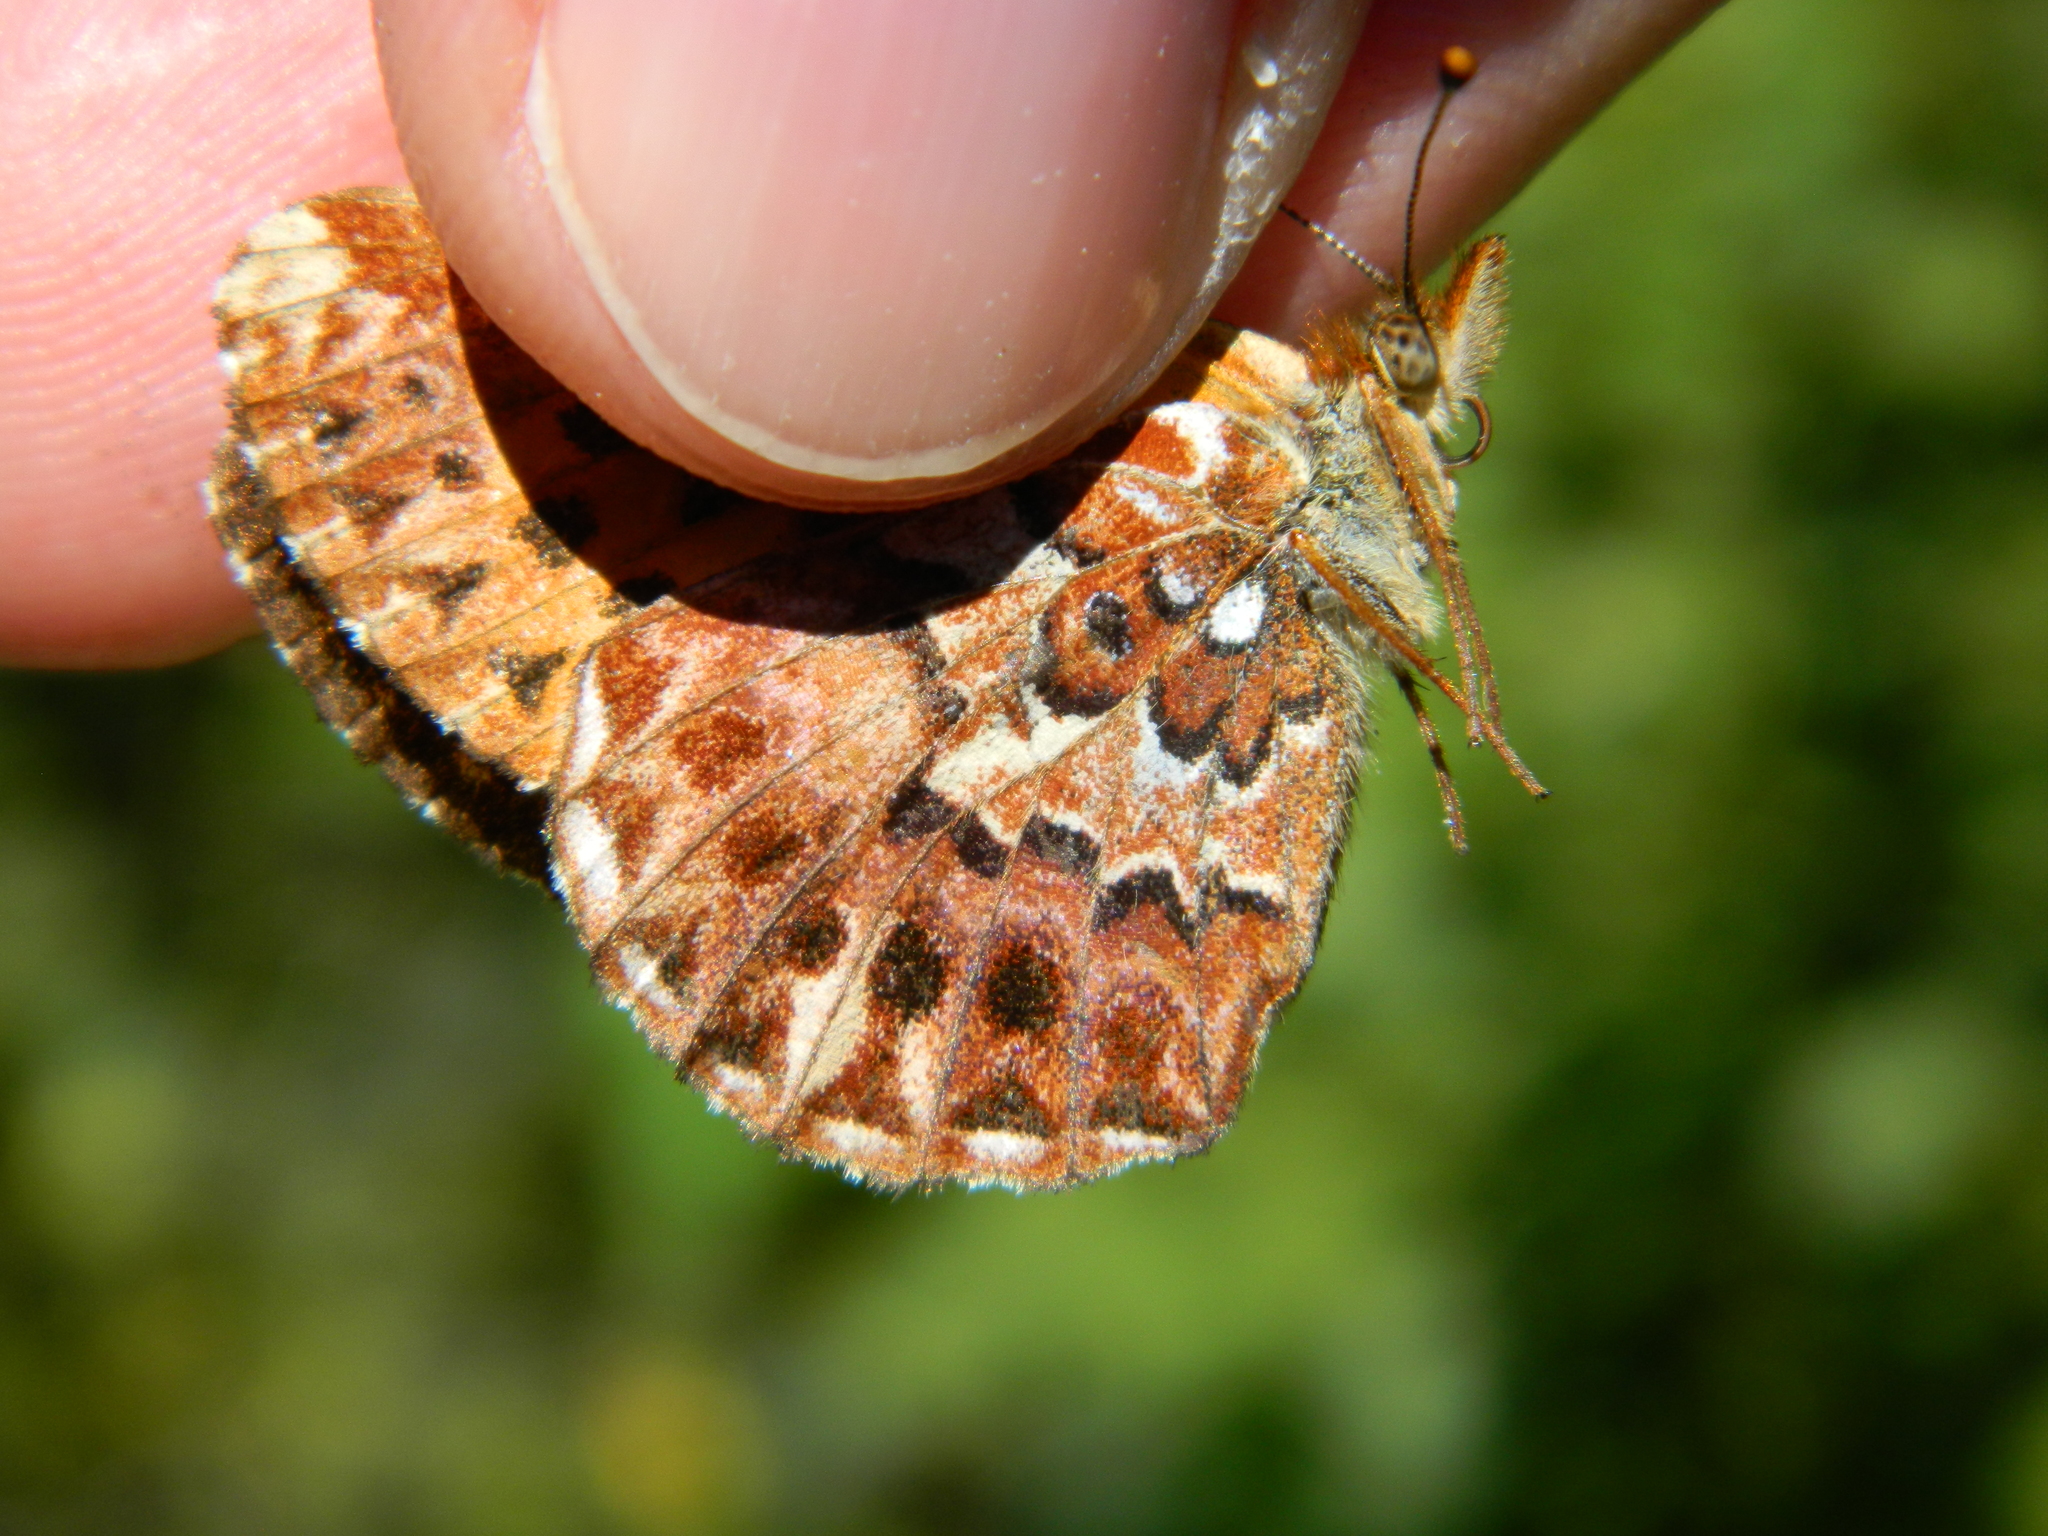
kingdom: Animalia
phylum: Arthropoda
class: Insecta
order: Lepidoptera
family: Nymphalidae
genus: Clossiana
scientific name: Clossiana chariclea
